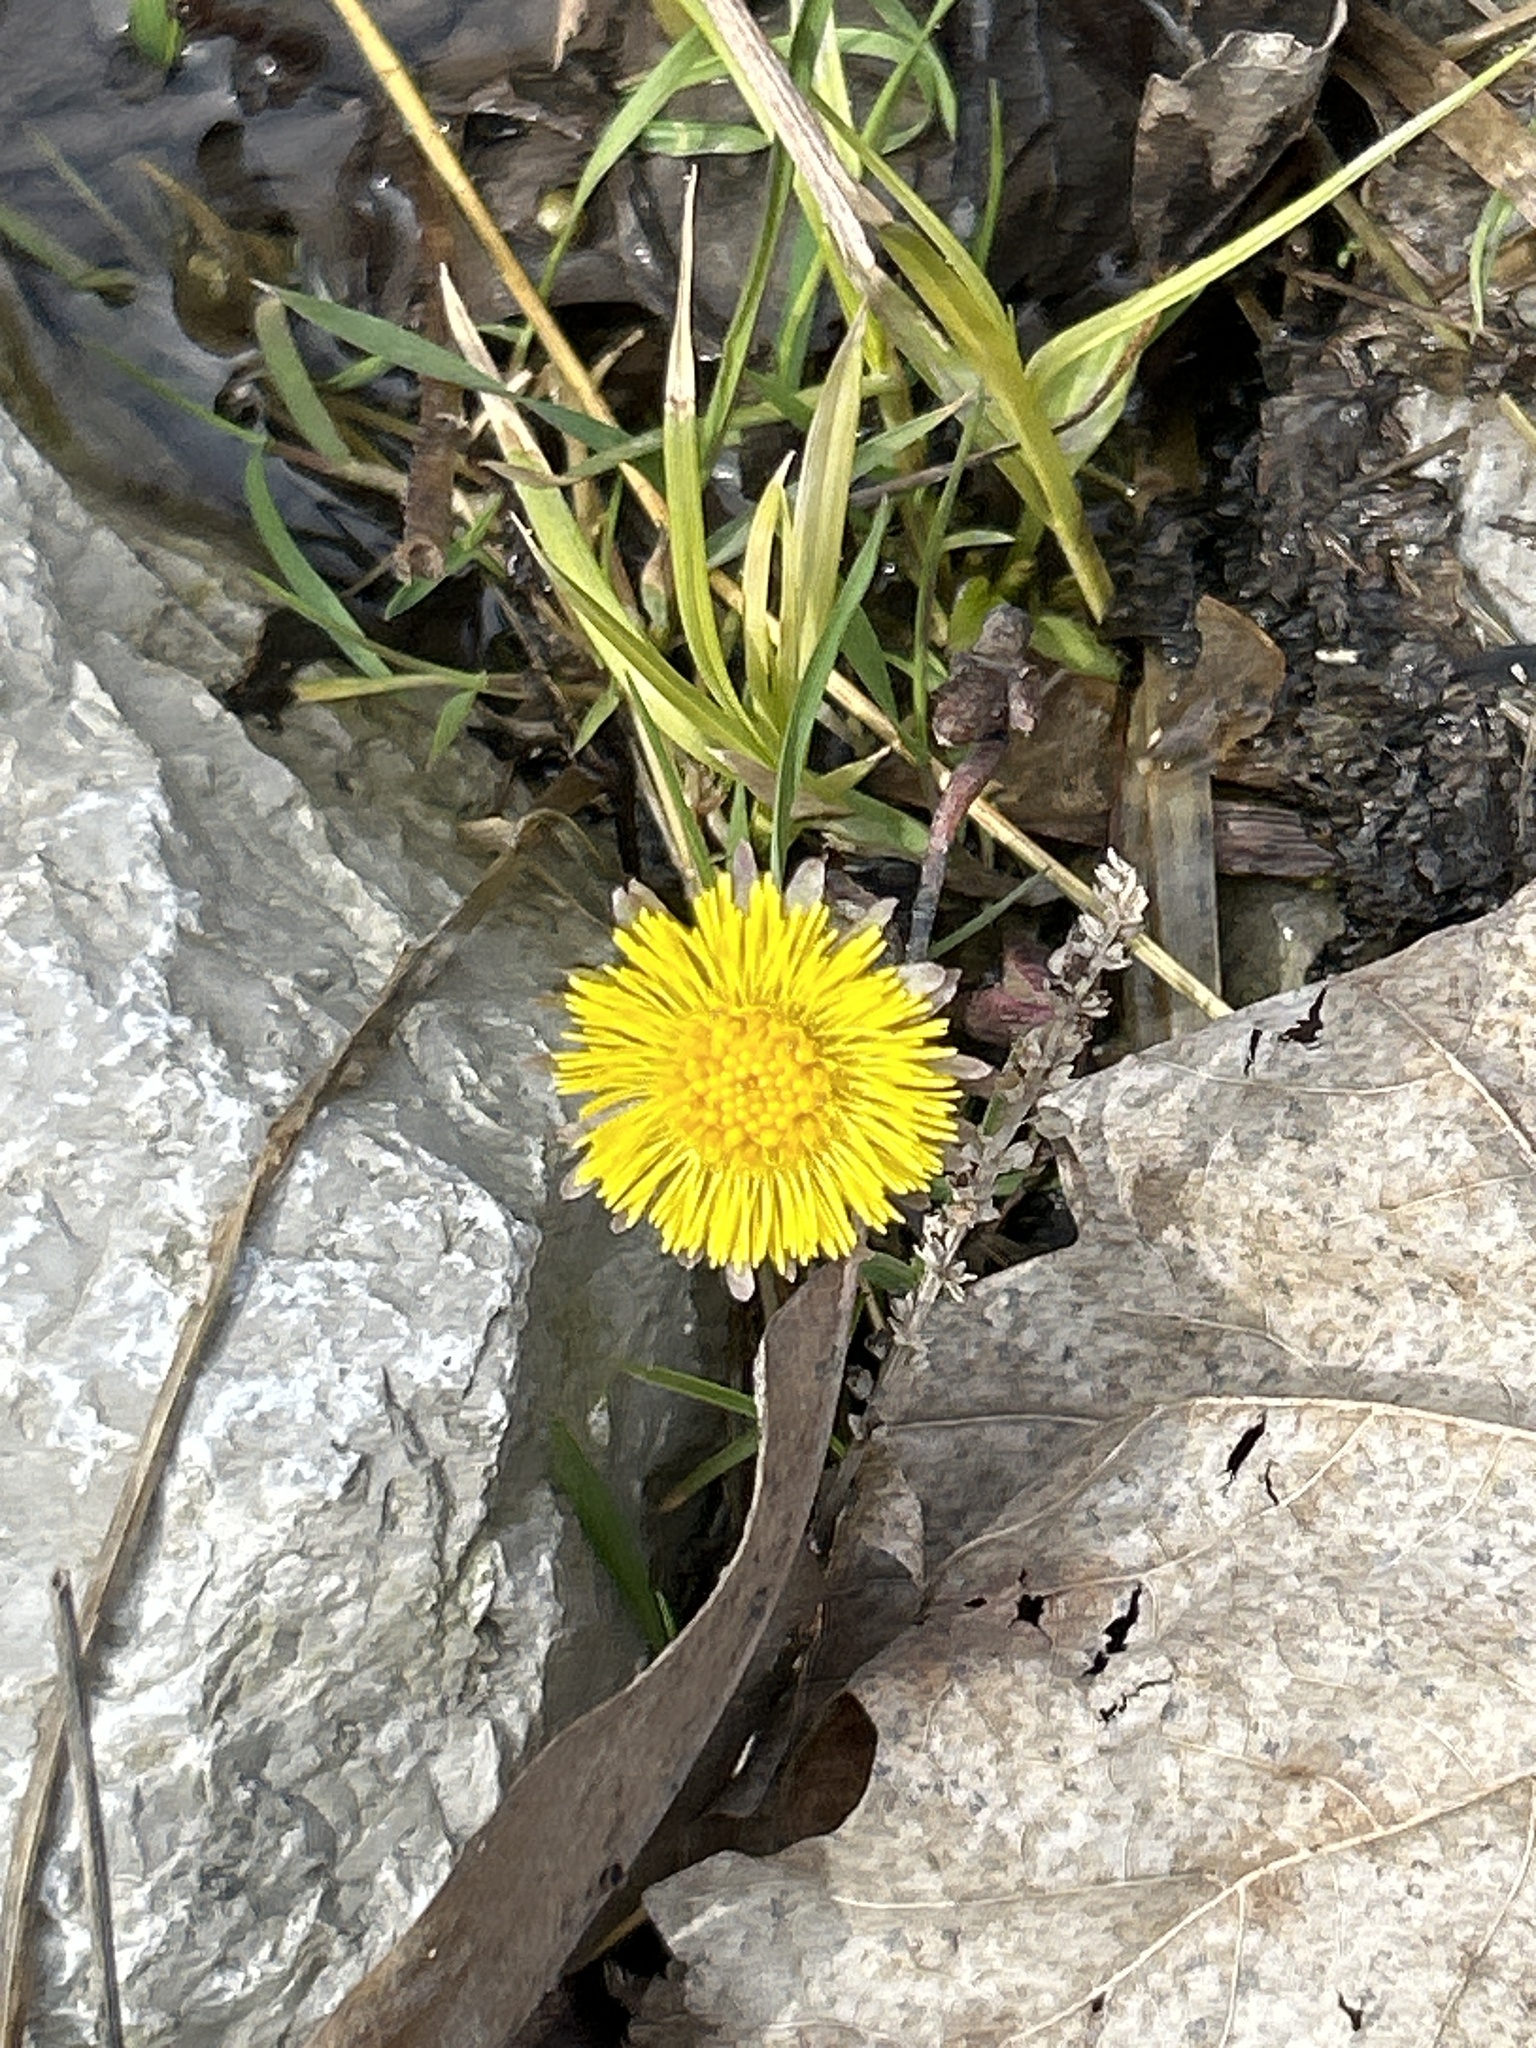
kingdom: Plantae
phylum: Tracheophyta
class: Magnoliopsida
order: Asterales
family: Asteraceae
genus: Tussilago
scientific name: Tussilago farfara
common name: Coltsfoot
